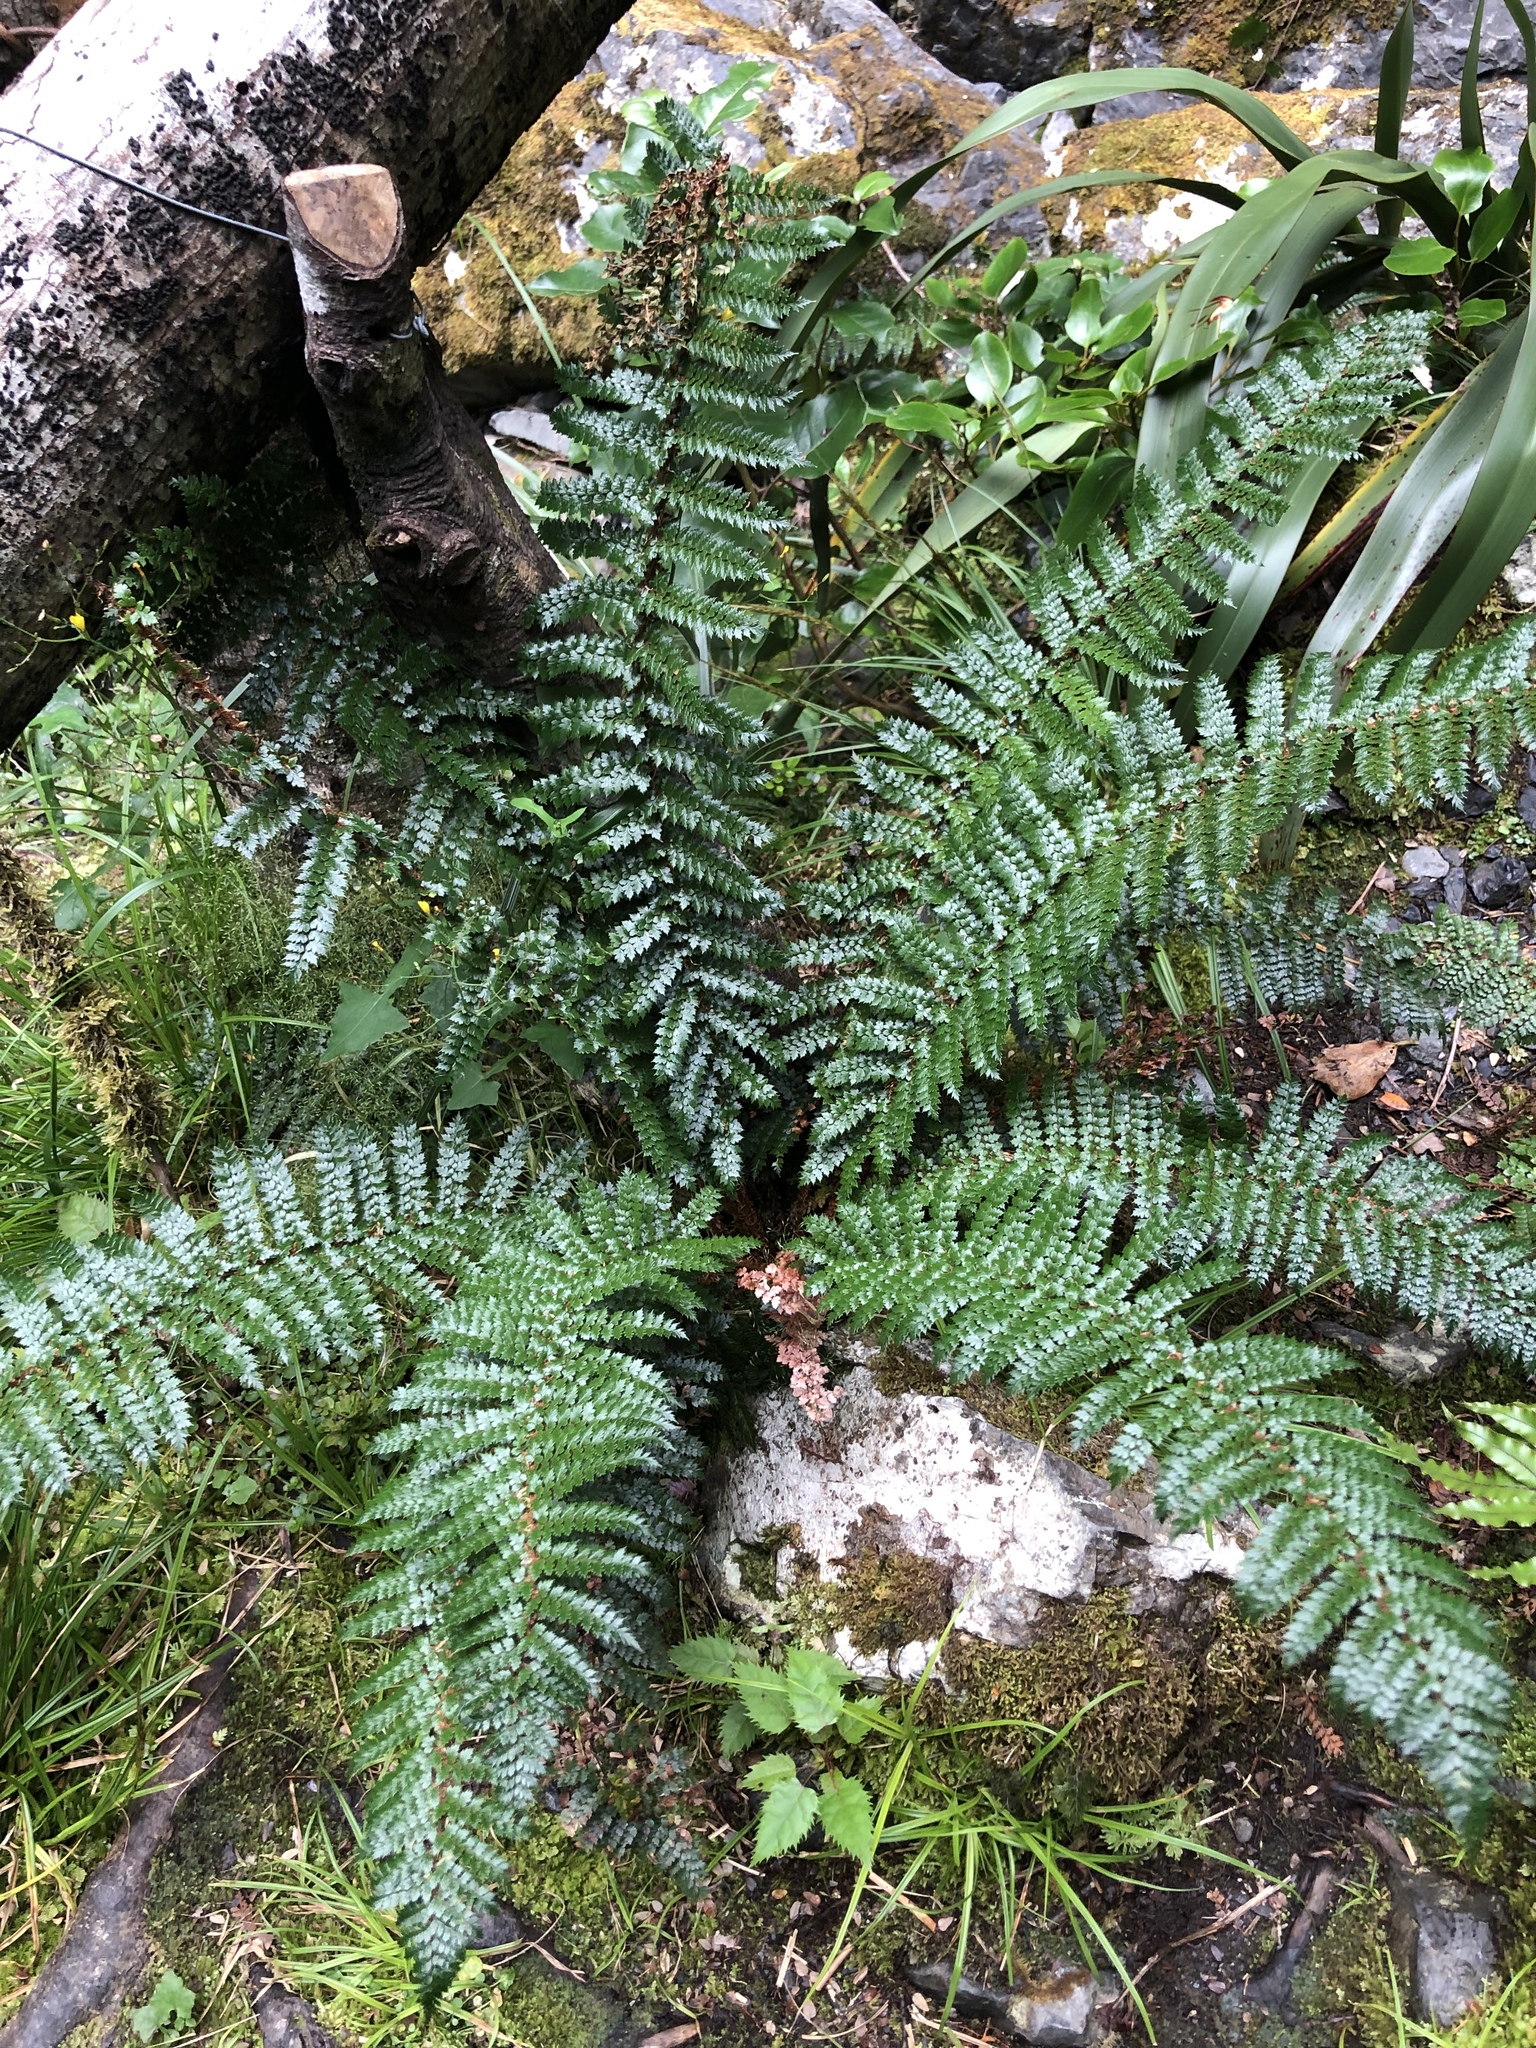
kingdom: Plantae
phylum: Tracheophyta
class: Polypodiopsida
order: Polypodiales
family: Dryopteridaceae
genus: Polystichum
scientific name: Polystichum vestitum
